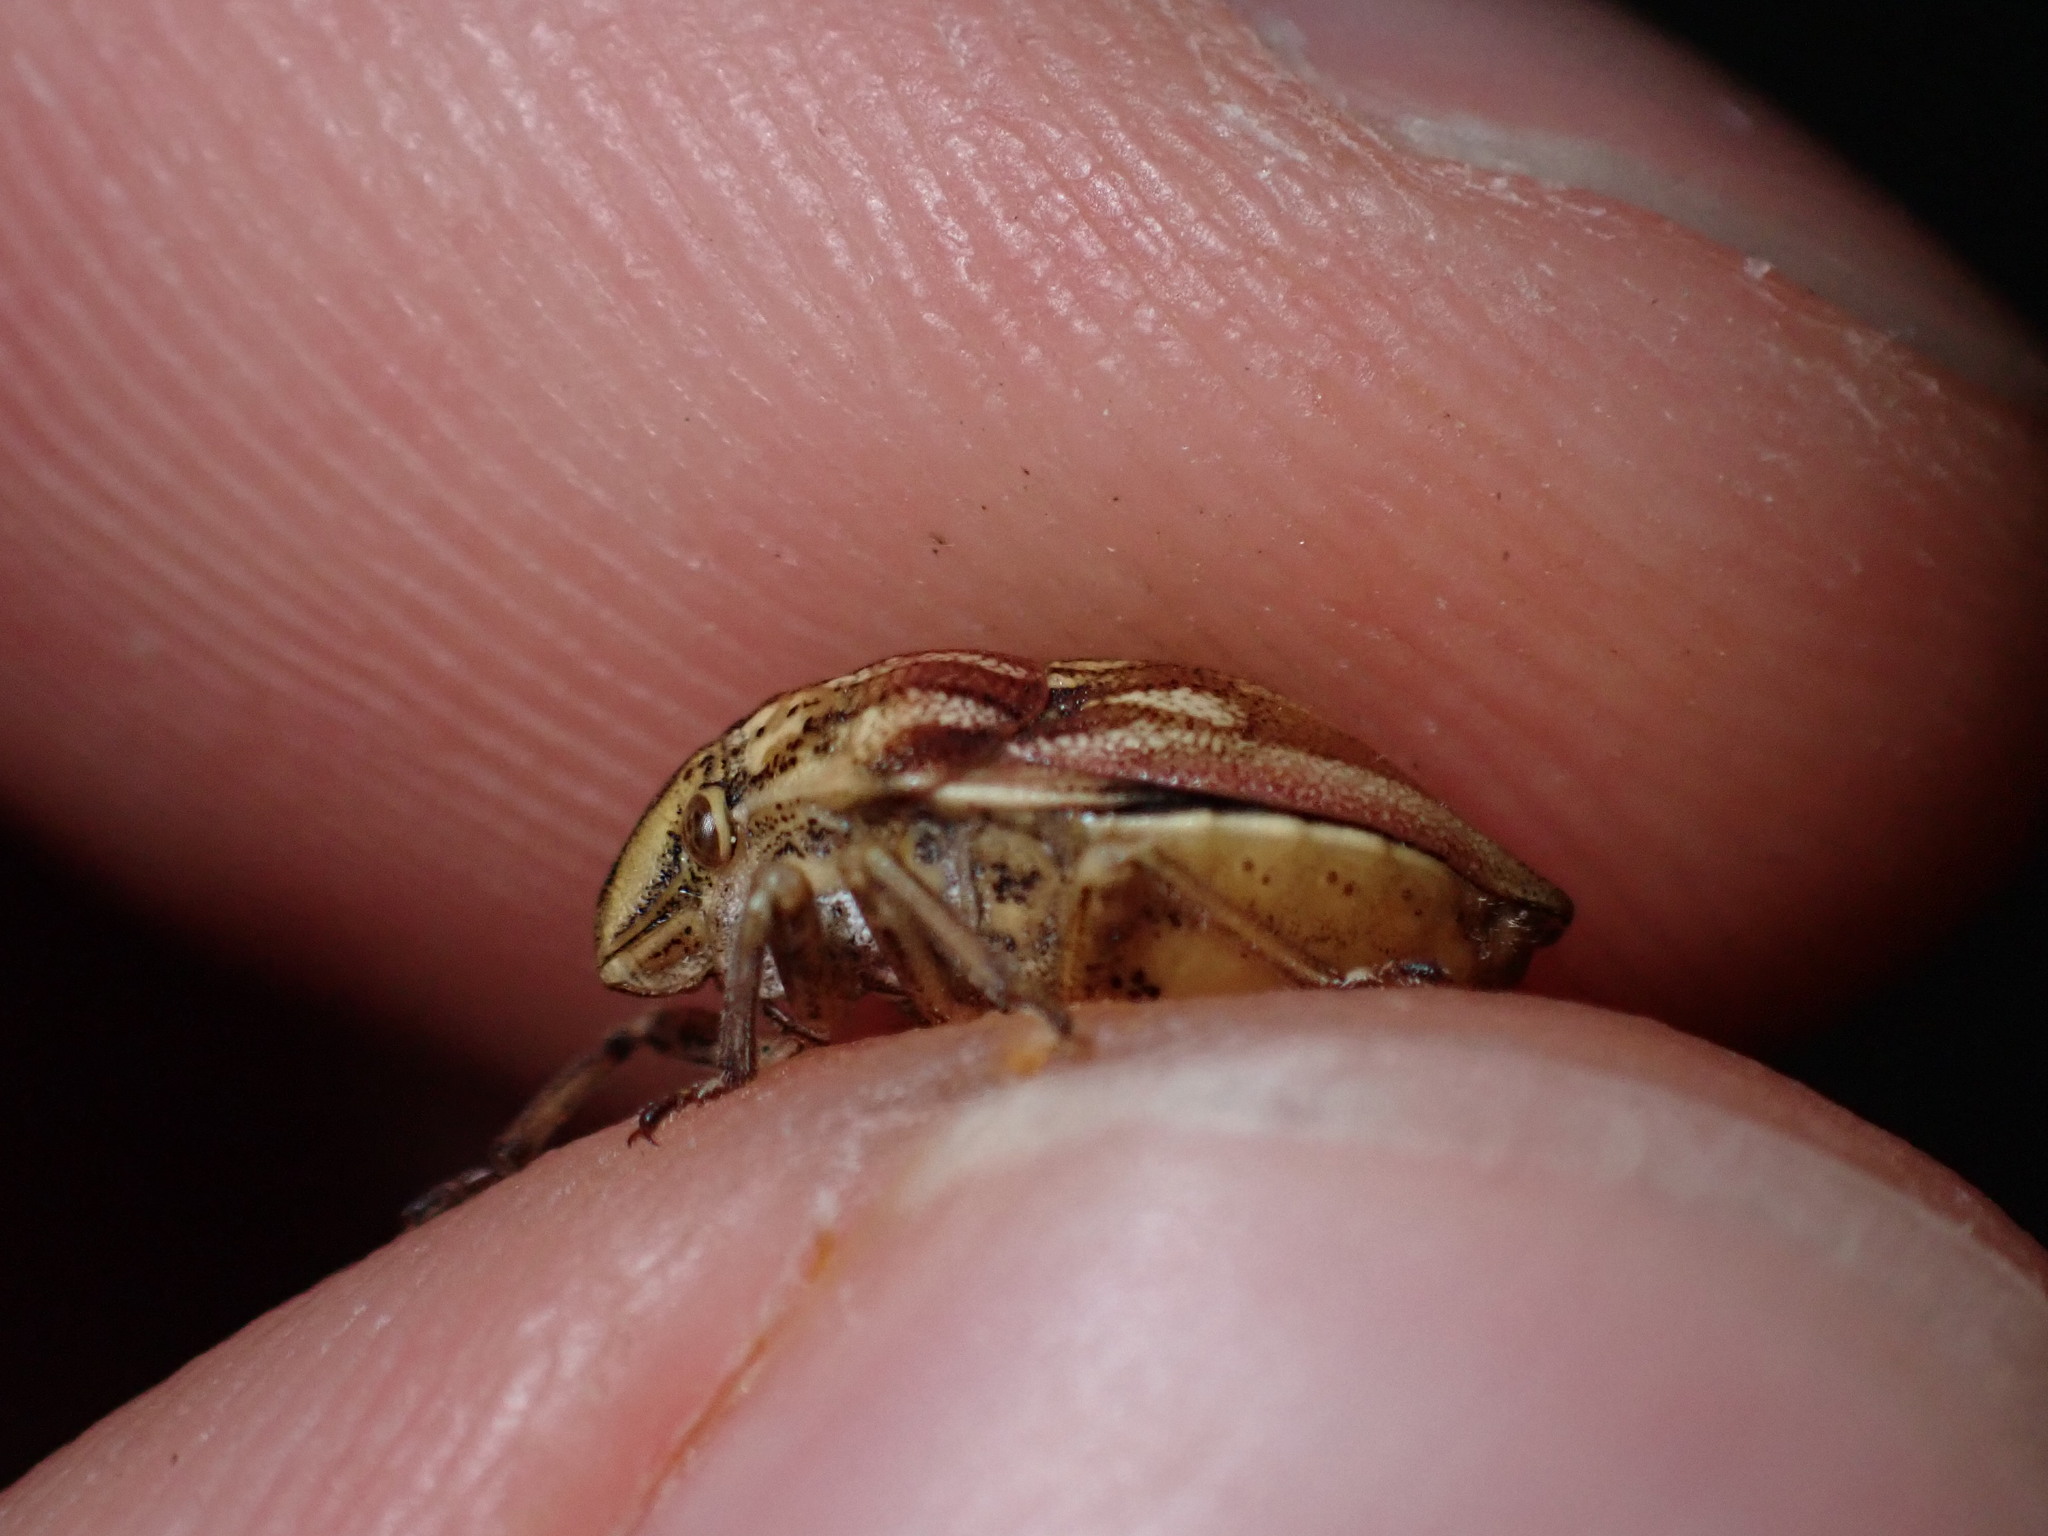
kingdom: Animalia
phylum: Arthropoda
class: Insecta
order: Hemiptera
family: Scutelleridae
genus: Odontotarsus
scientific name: Odontotarsus purpureolineatus
